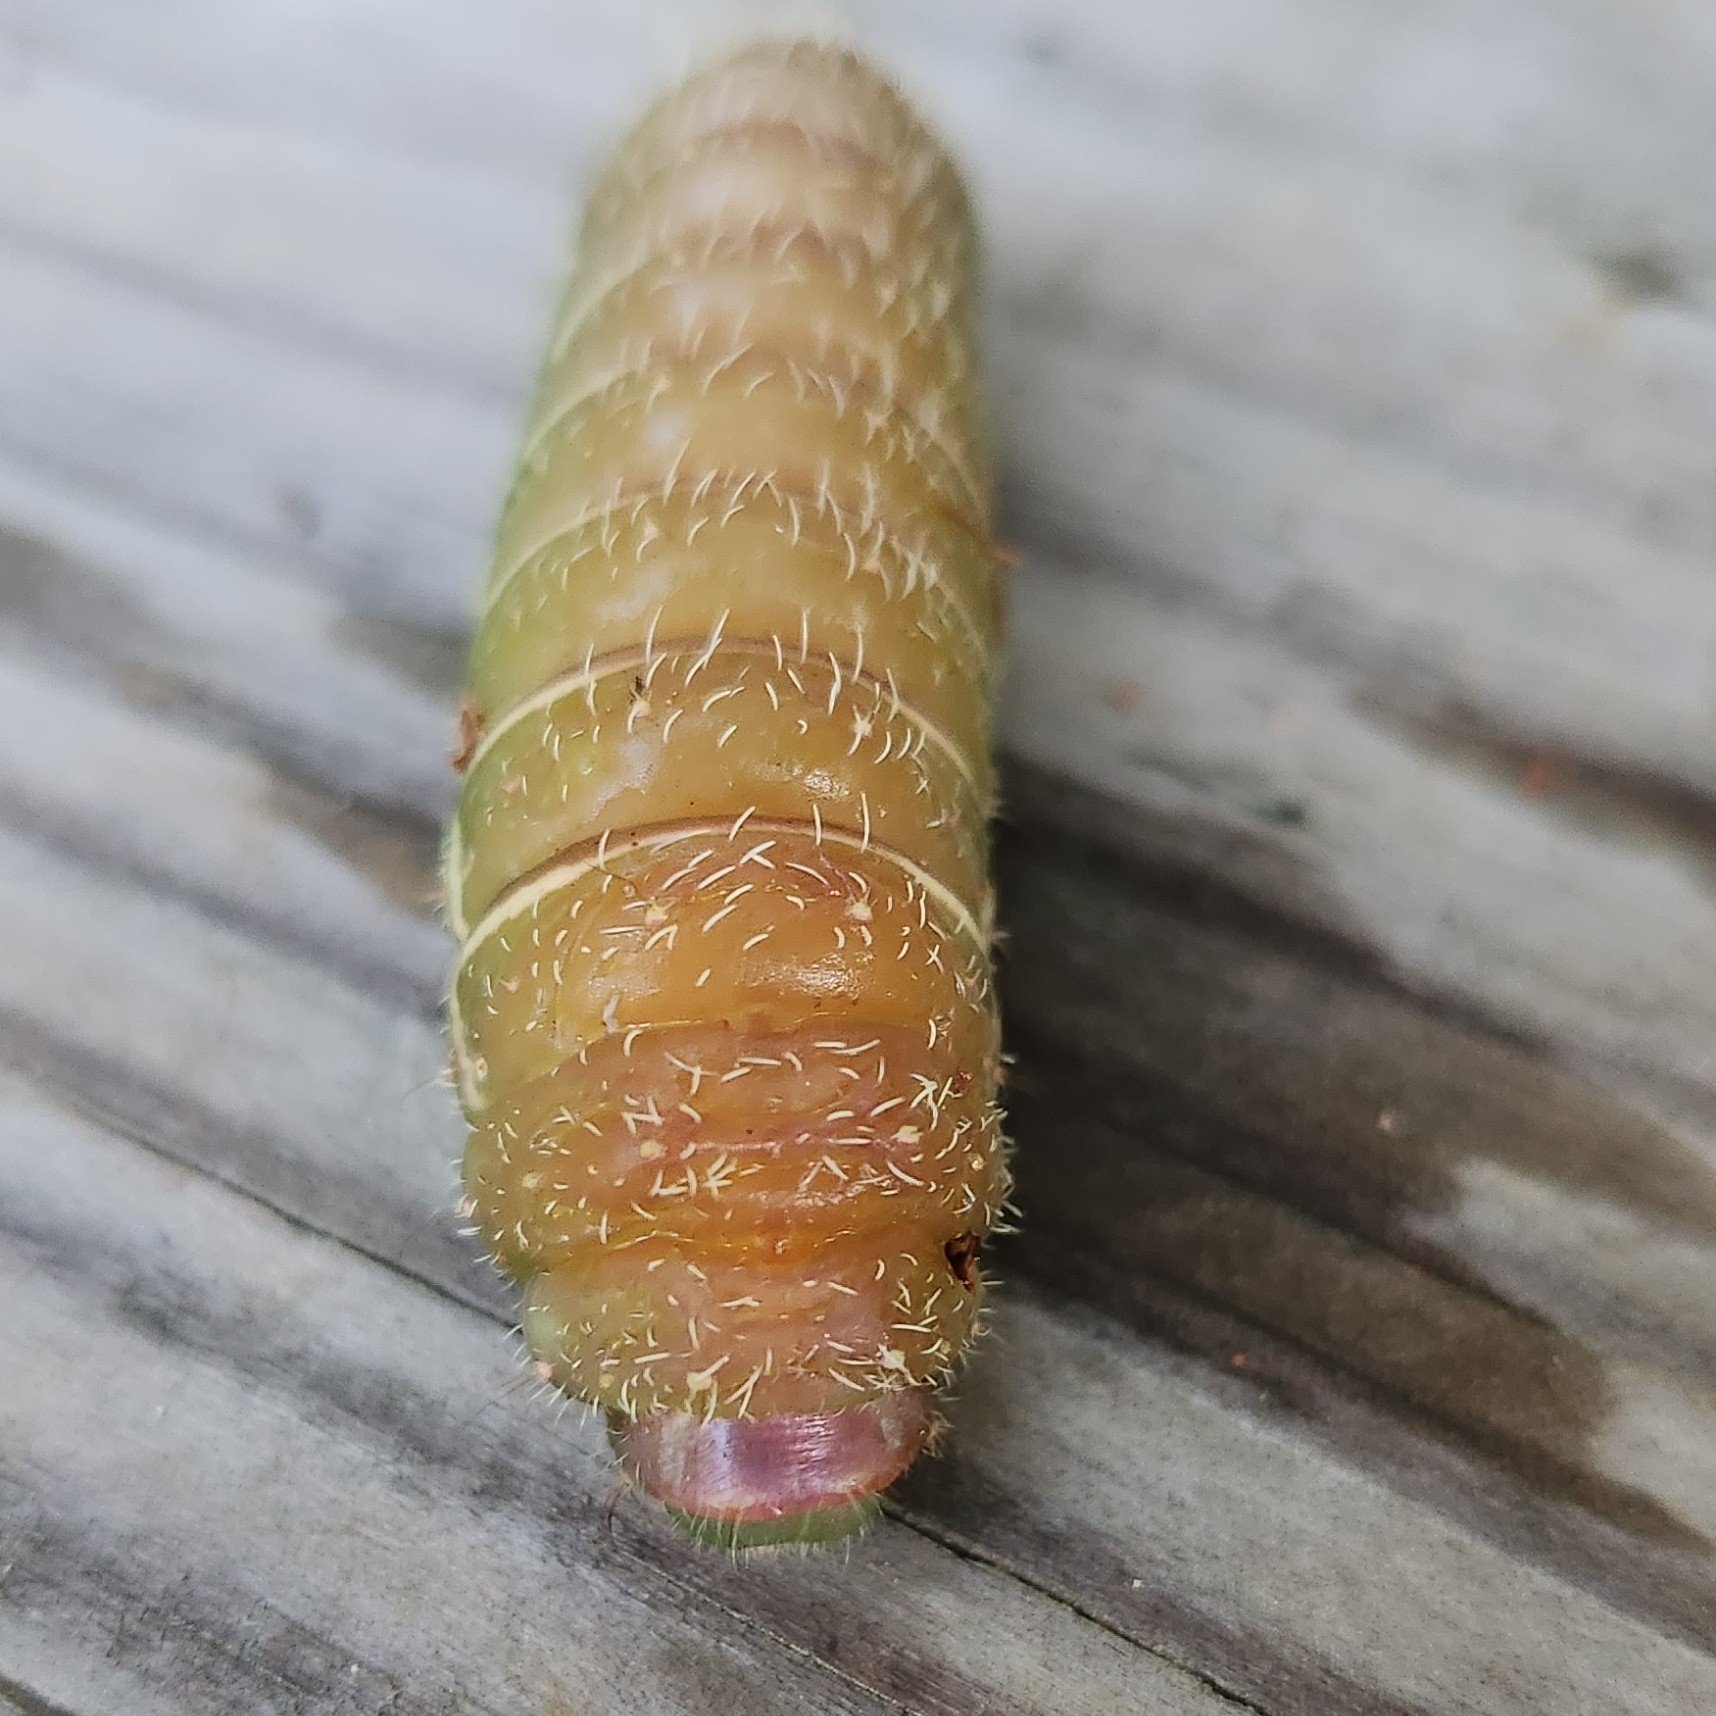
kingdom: Animalia
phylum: Arthropoda
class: Insecta
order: Lepidoptera
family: Saturniidae
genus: Actias
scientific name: Actias luna
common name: Luna moth
